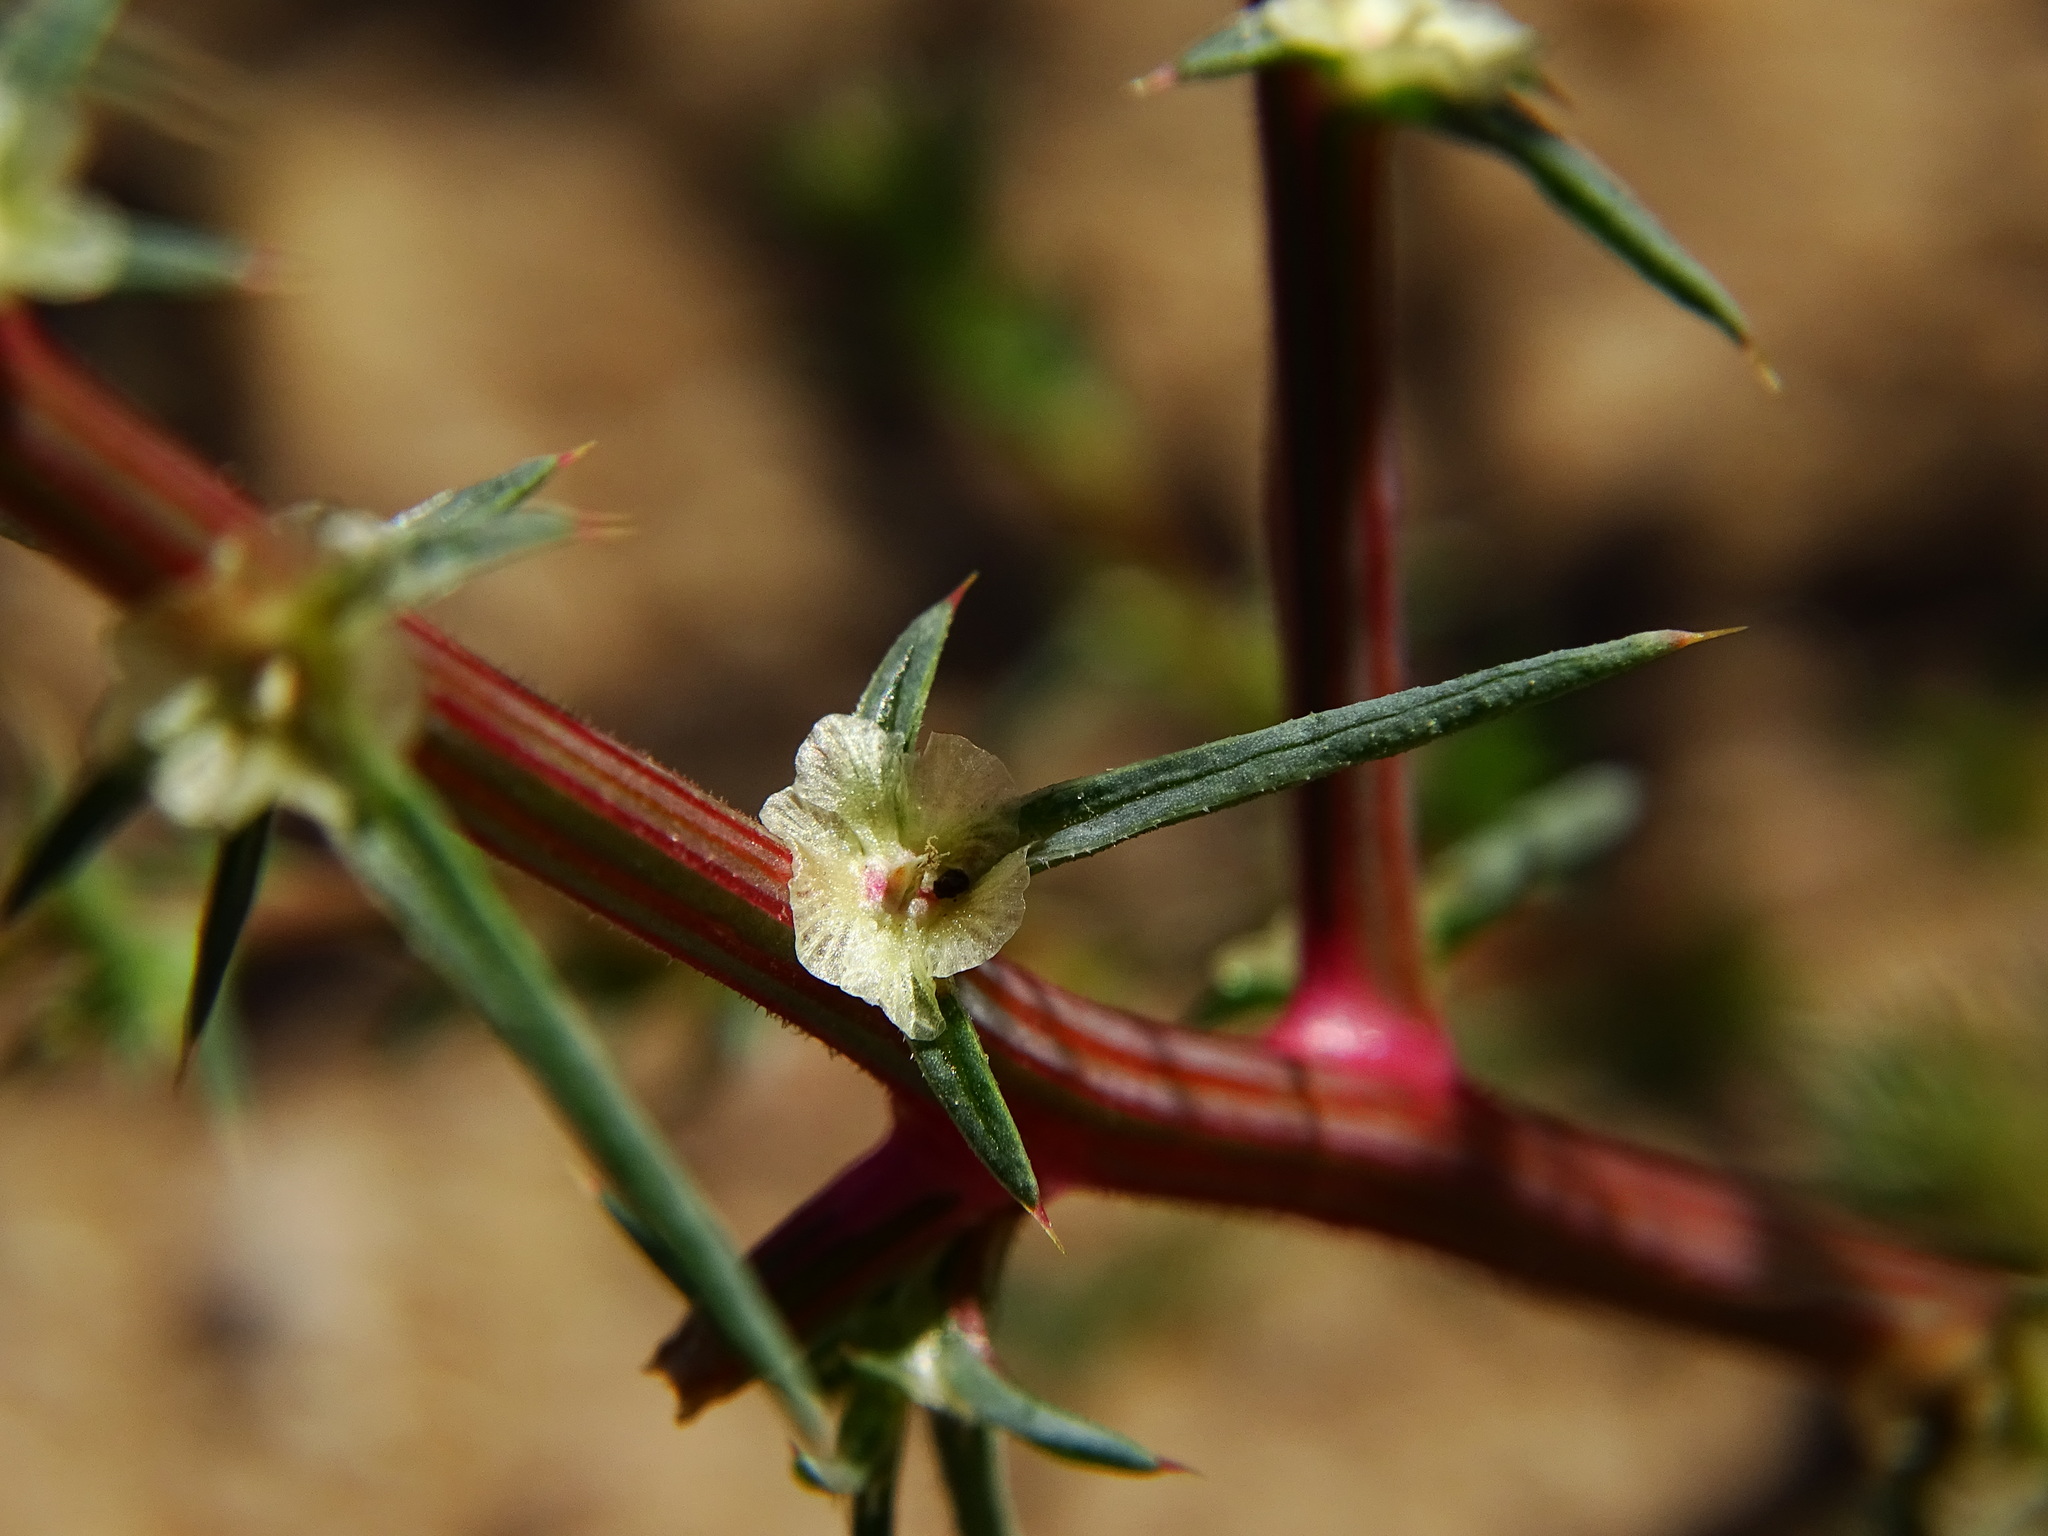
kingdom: Plantae
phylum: Tracheophyta
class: Magnoliopsida
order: Caryophyllales
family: Amaranthaceae
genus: Salsola
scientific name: Salsola australis
